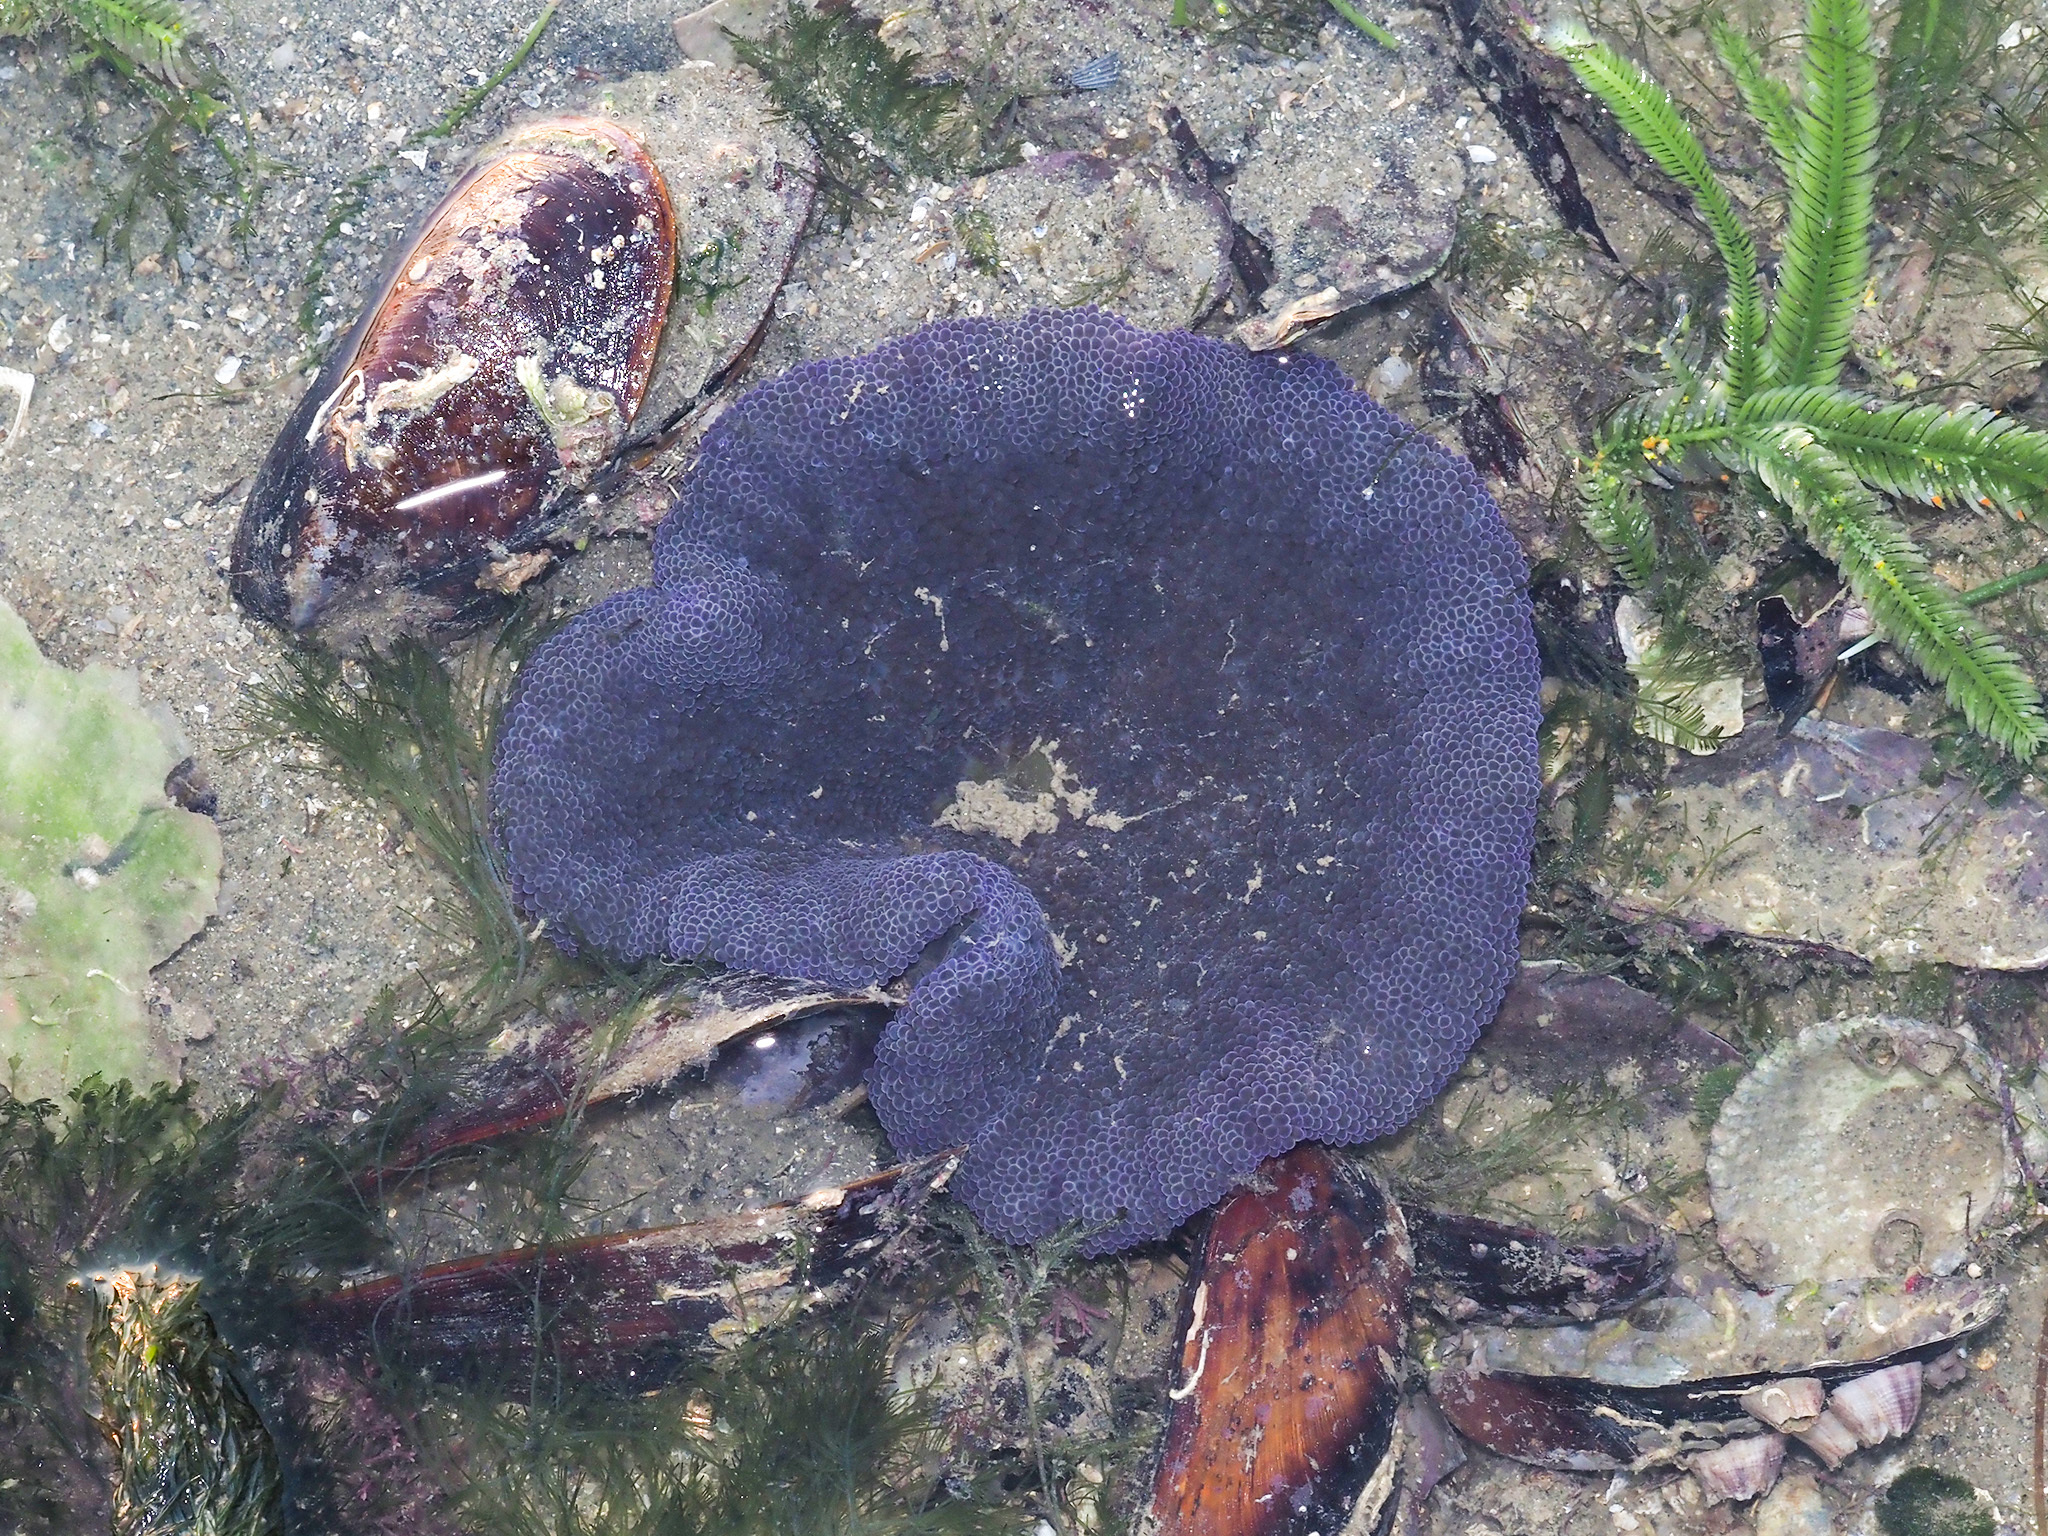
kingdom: Animalia
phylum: Cnidaria
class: Anthozoa
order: Actiniaria
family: Stichodactylidae
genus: Stichodactyla
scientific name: Stichodactyla haddoni
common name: Haddon's sea anemone
